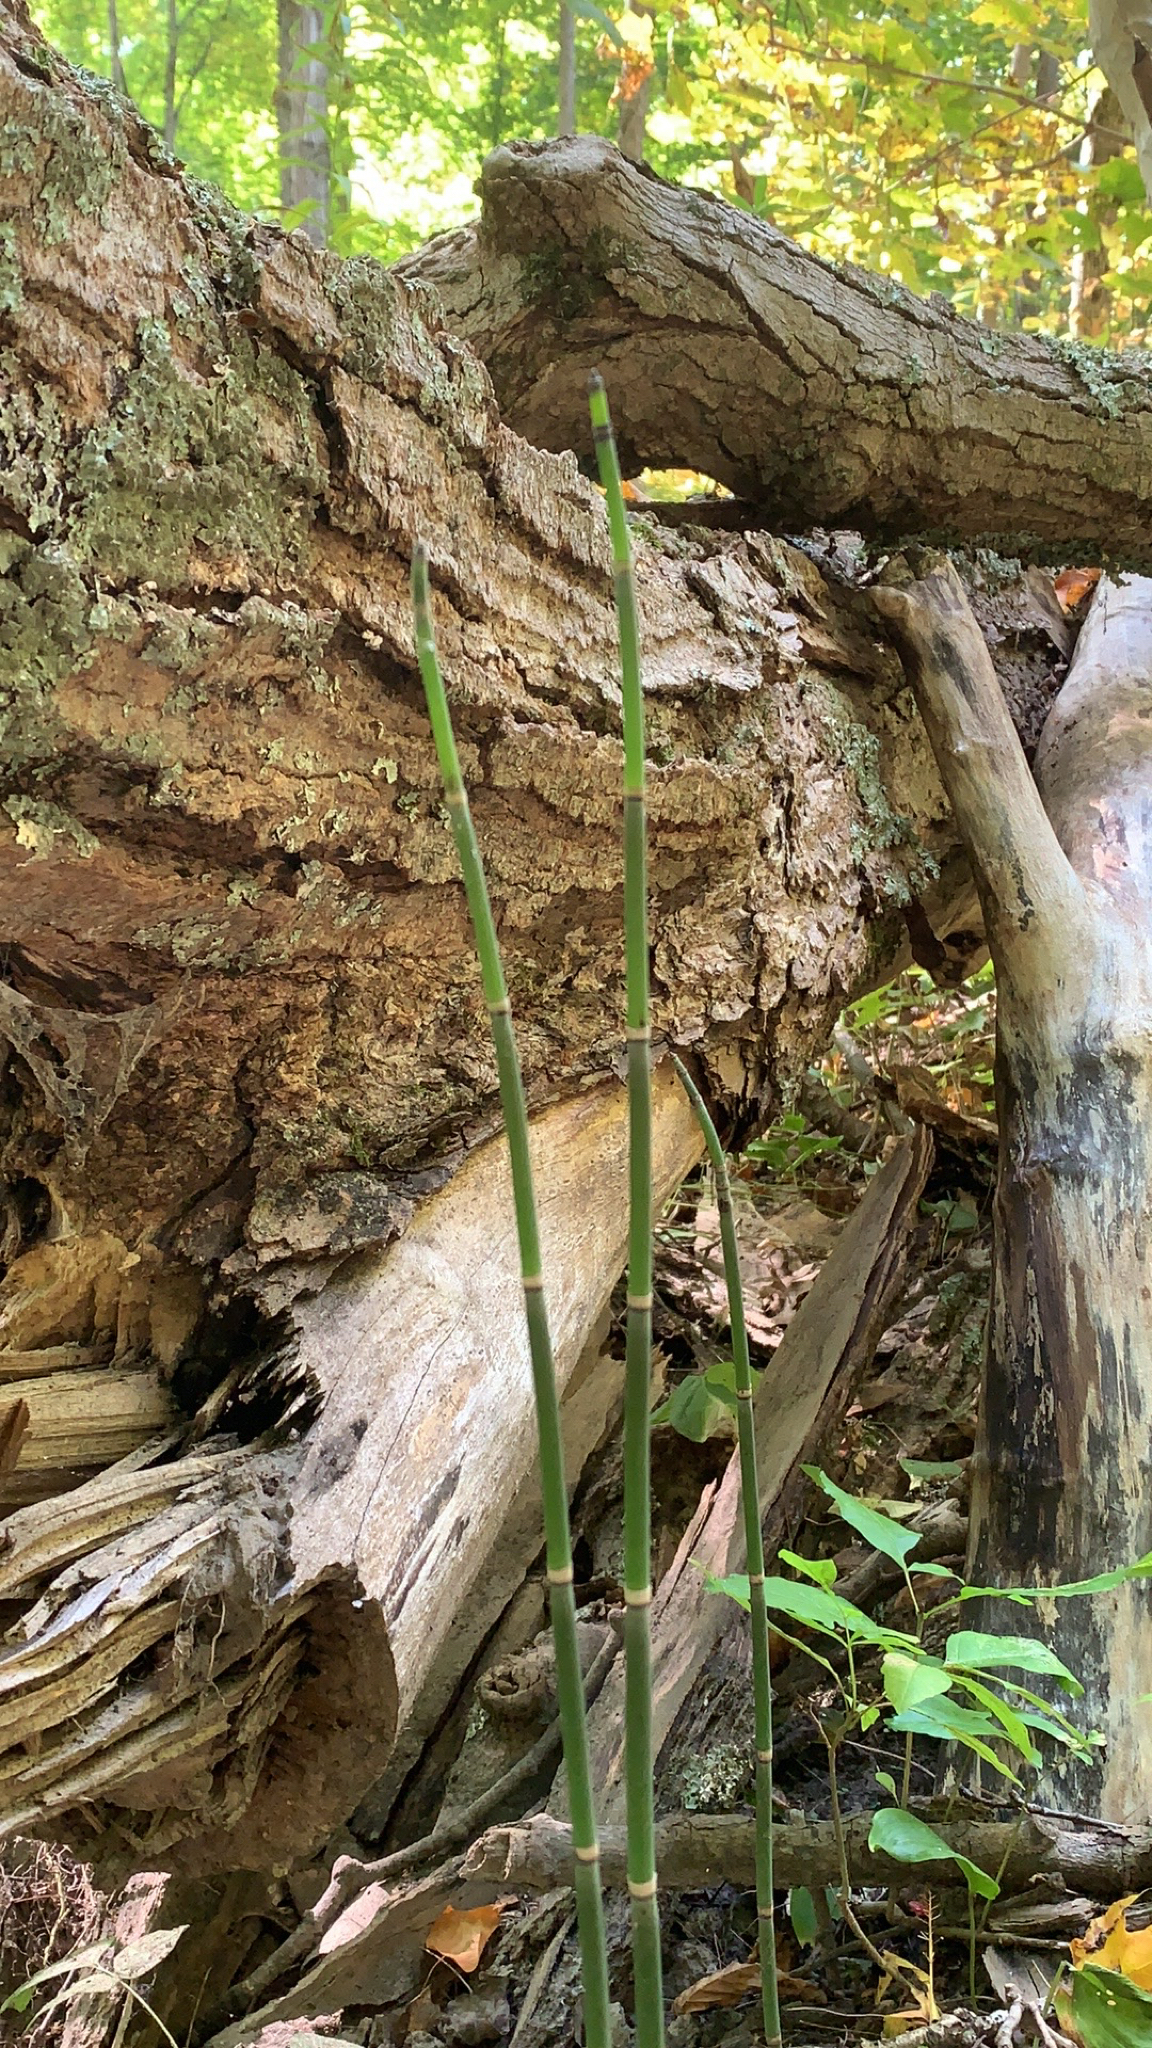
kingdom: Plantae
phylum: Tracheophyta
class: Polypodiopsida
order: Equisetales
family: Equisetaceae
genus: Equisetum
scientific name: Equisetum hyemale
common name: Rough horsetail
